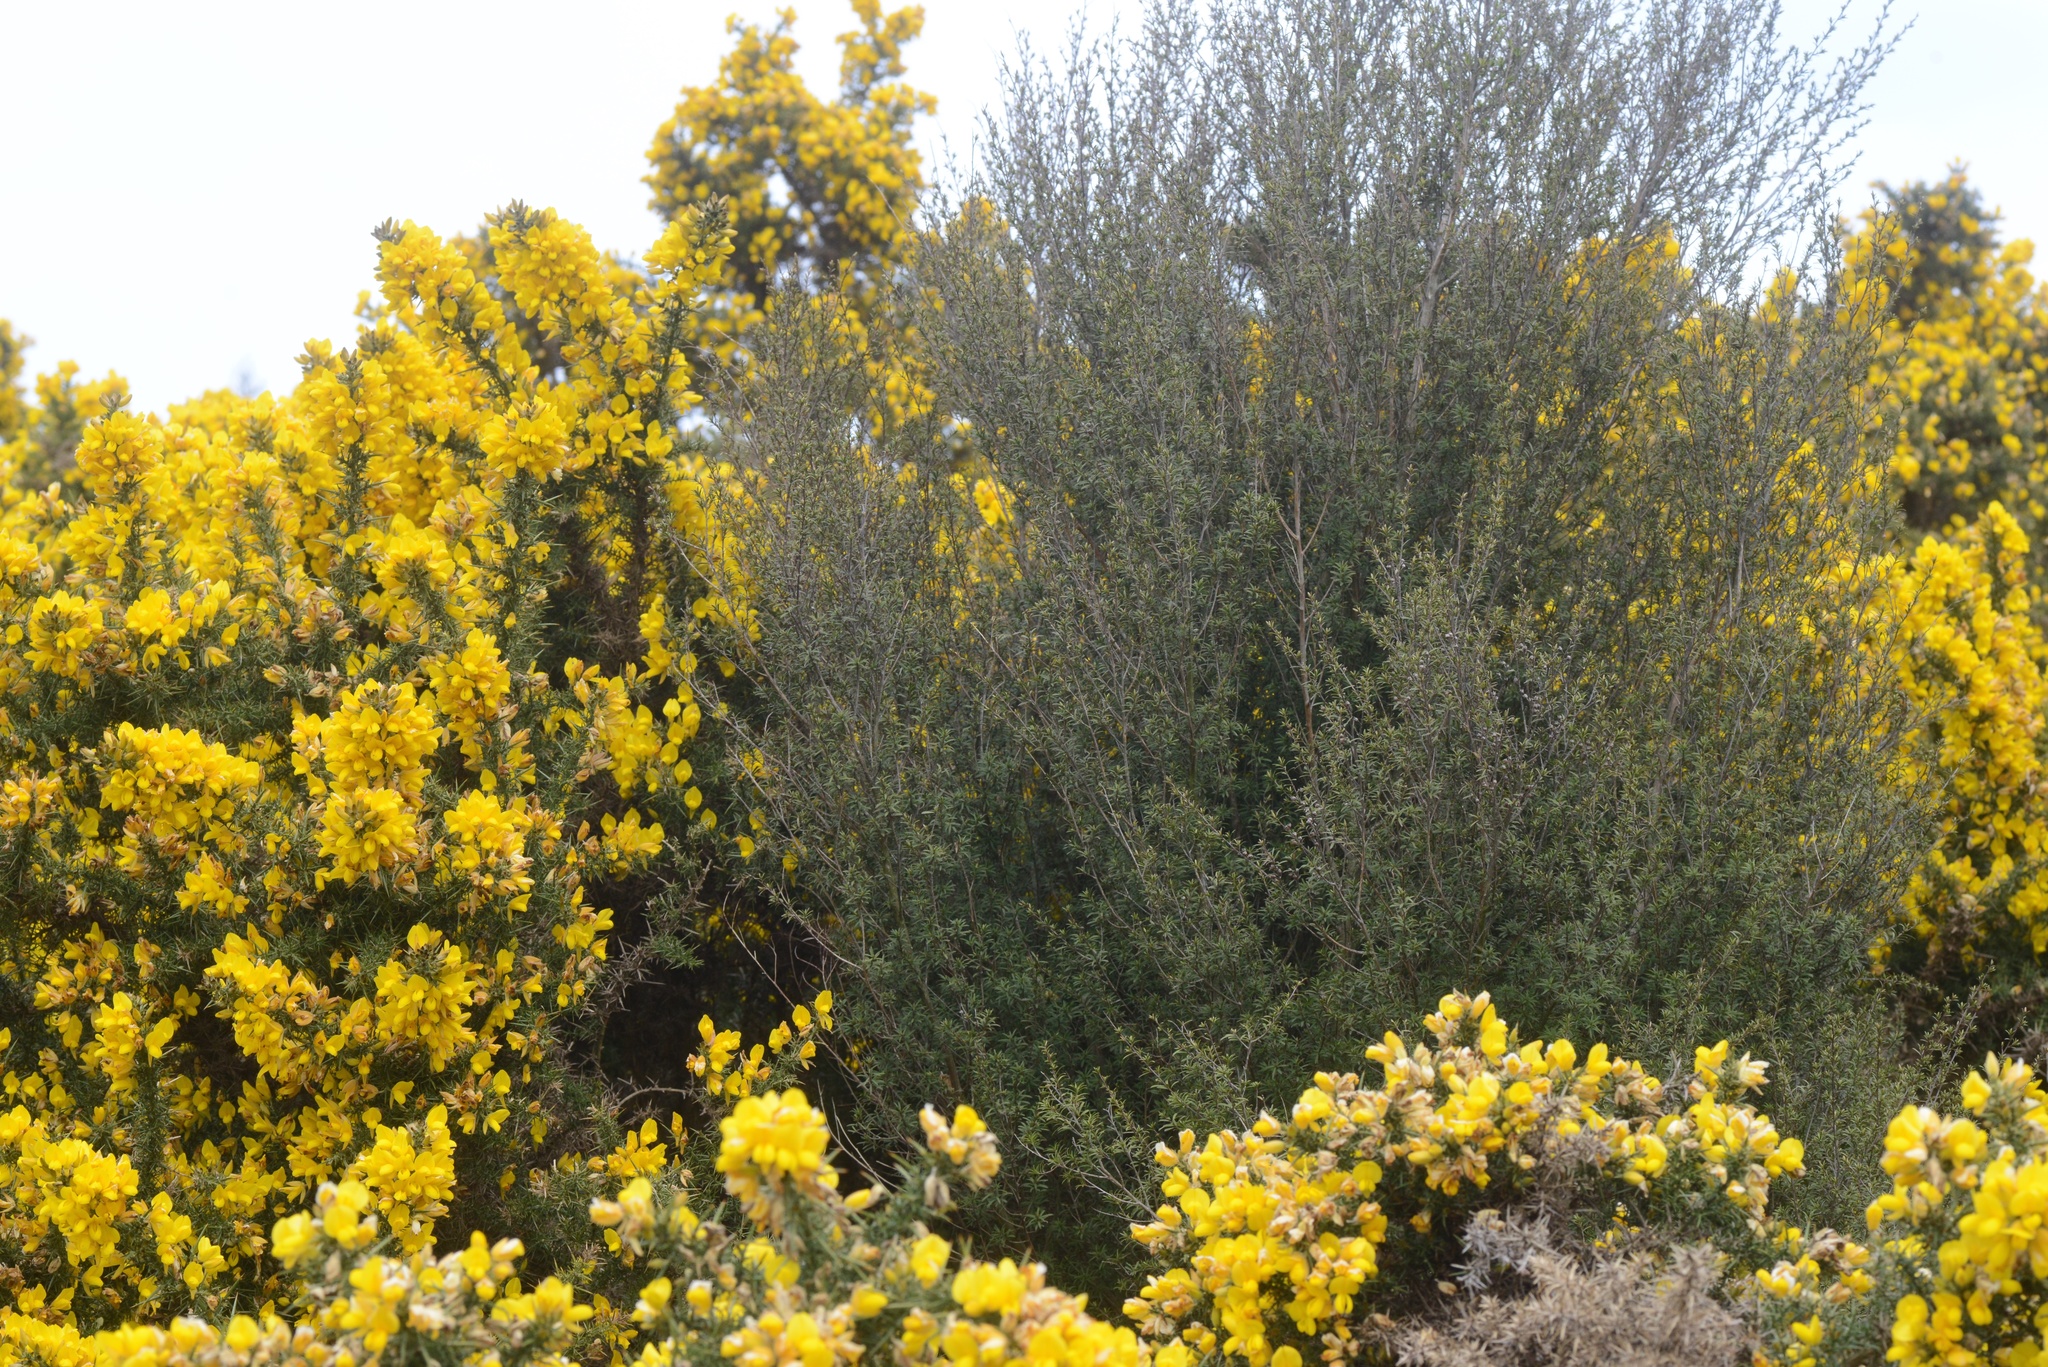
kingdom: Plantae
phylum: Tracheophyta
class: Magnoliopsida
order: Myrtales
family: Myrtaceae
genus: Kunzea
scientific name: Kunzea robusta
